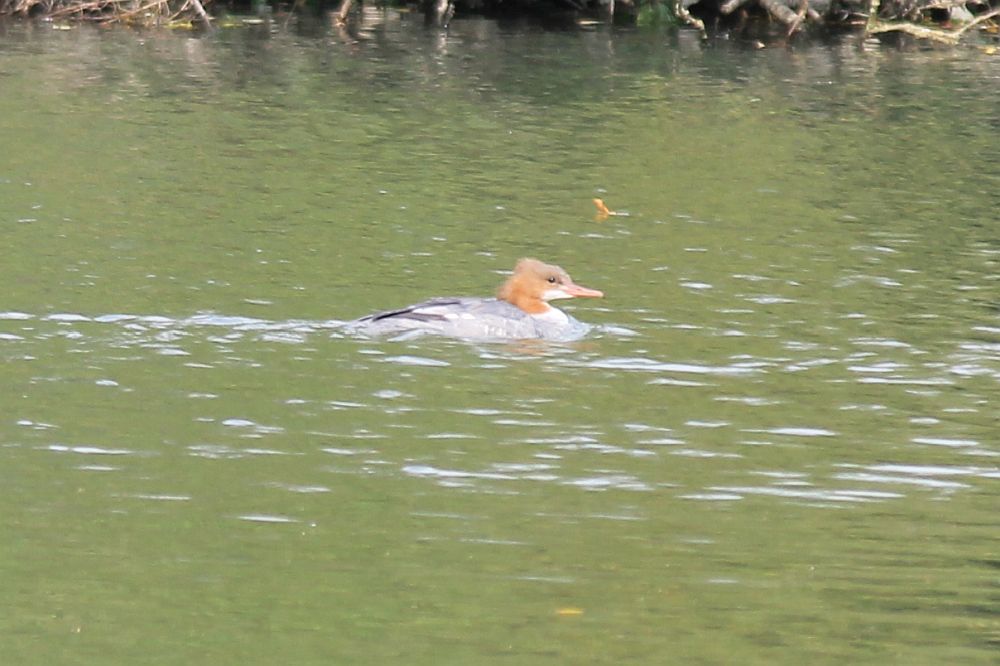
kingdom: Animalia
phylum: Chordata
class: Aves
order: Anseriformes
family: Anatidae
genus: Mergus
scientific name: Mergus merganser
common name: Common merganser
